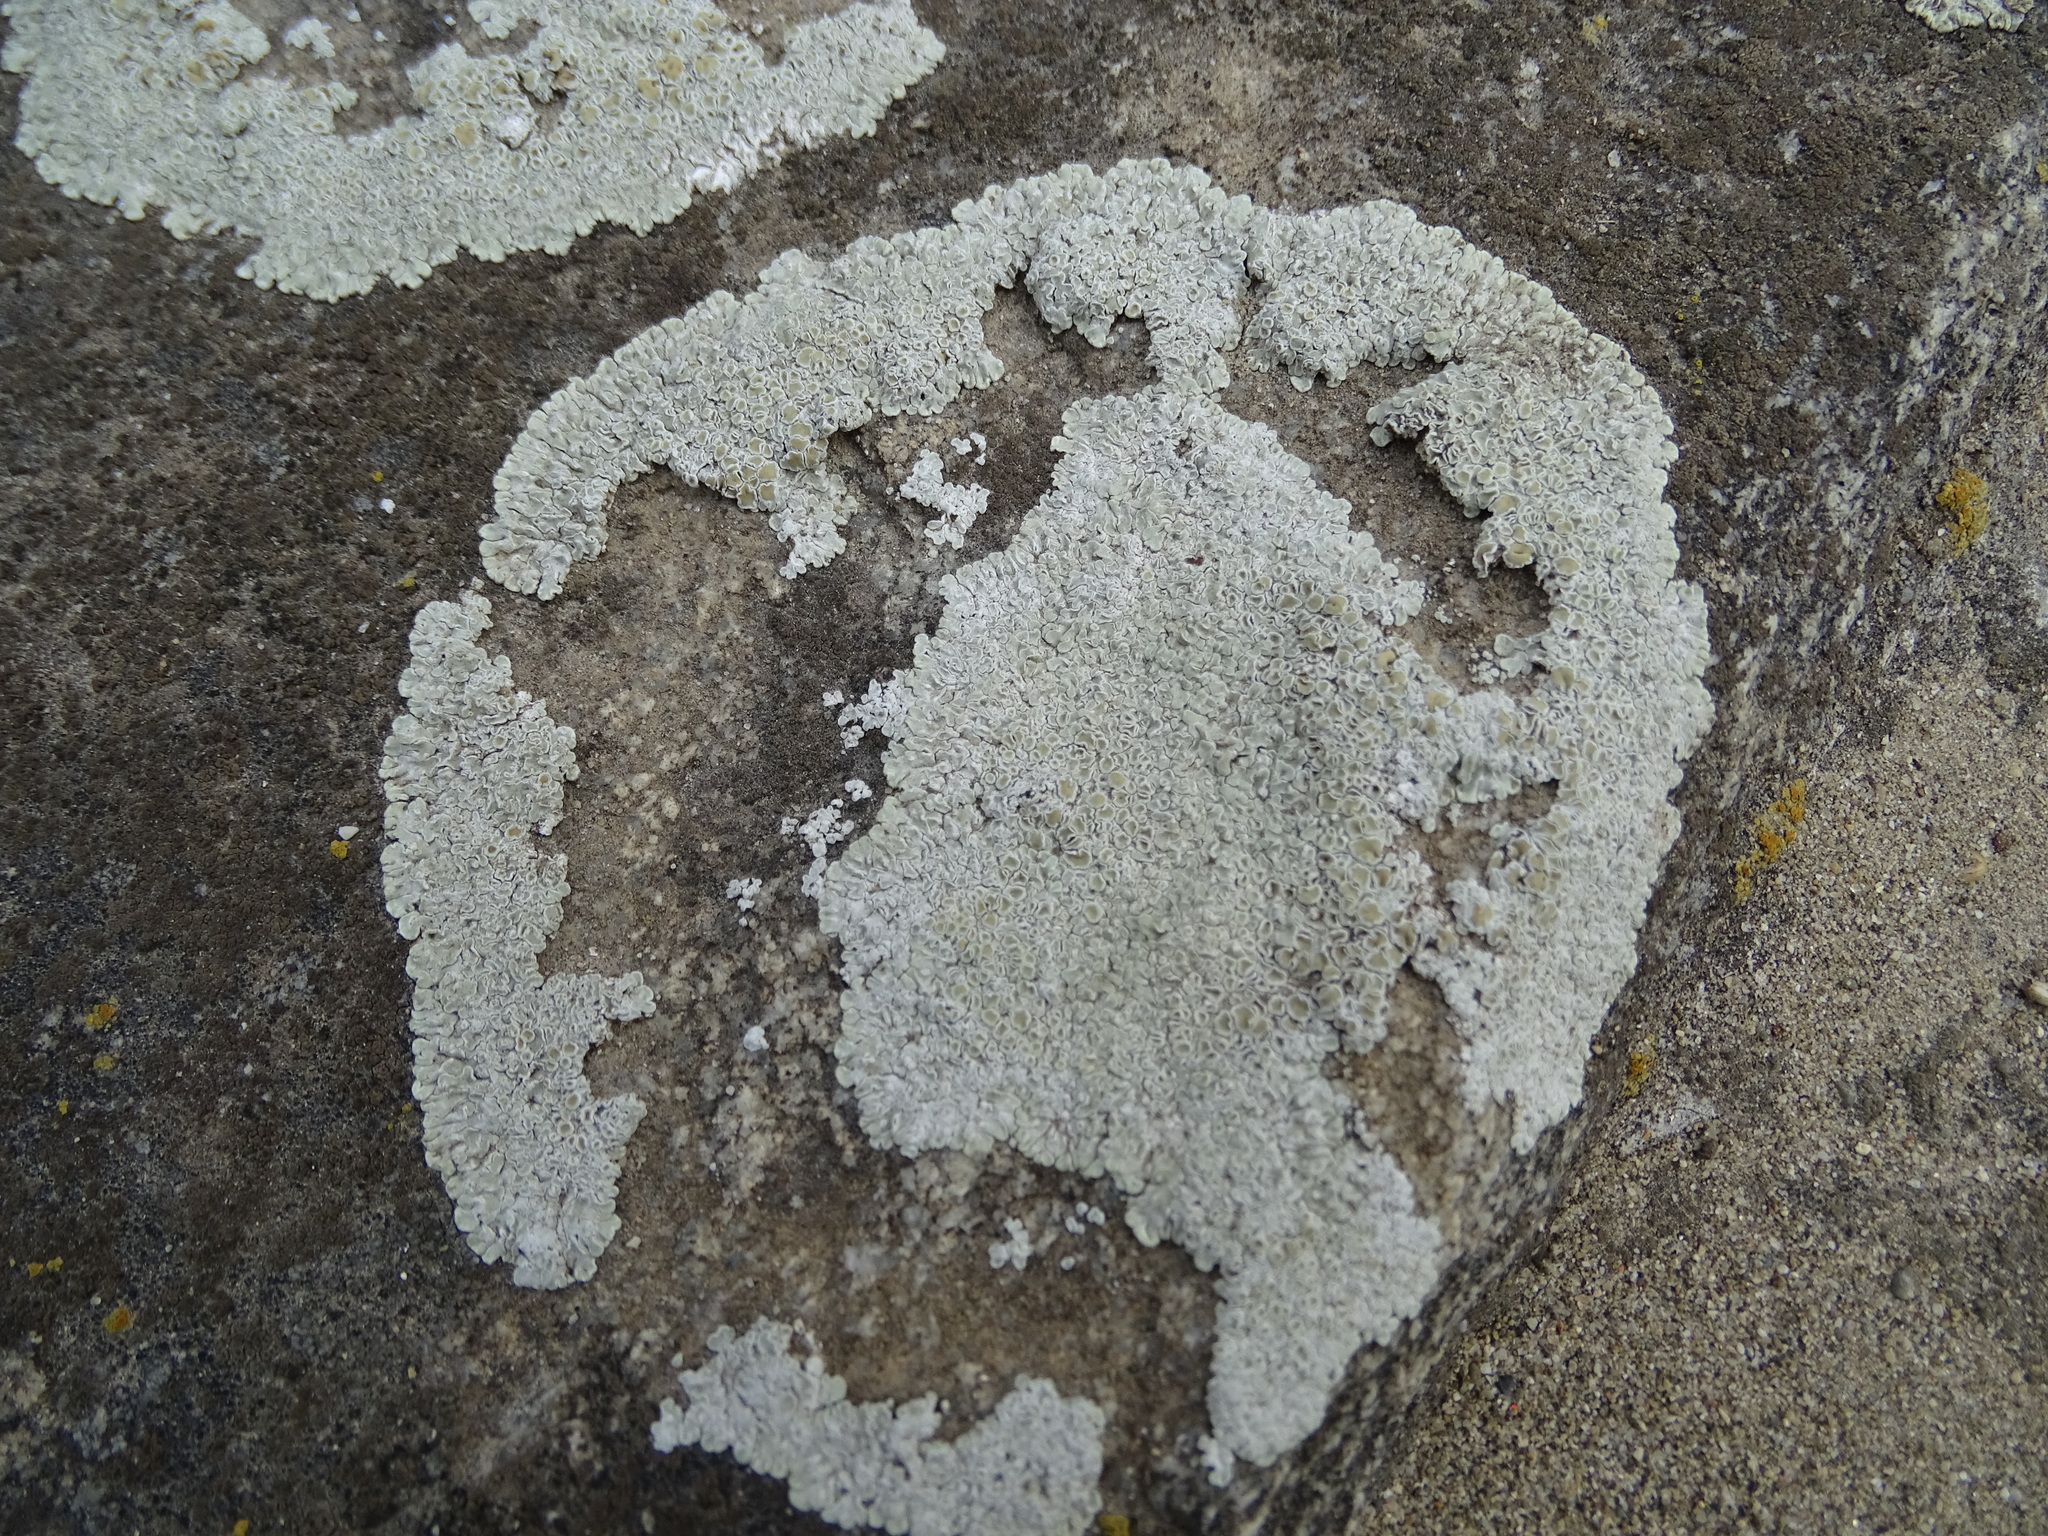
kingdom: Fungi
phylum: Ascomycota
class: Lecanoromycetes
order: Lecanorales
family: Lecanoraceae
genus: Protoparmeliopsis
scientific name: Protoparmeliopsis muralis
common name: Stonewall rim lichen
